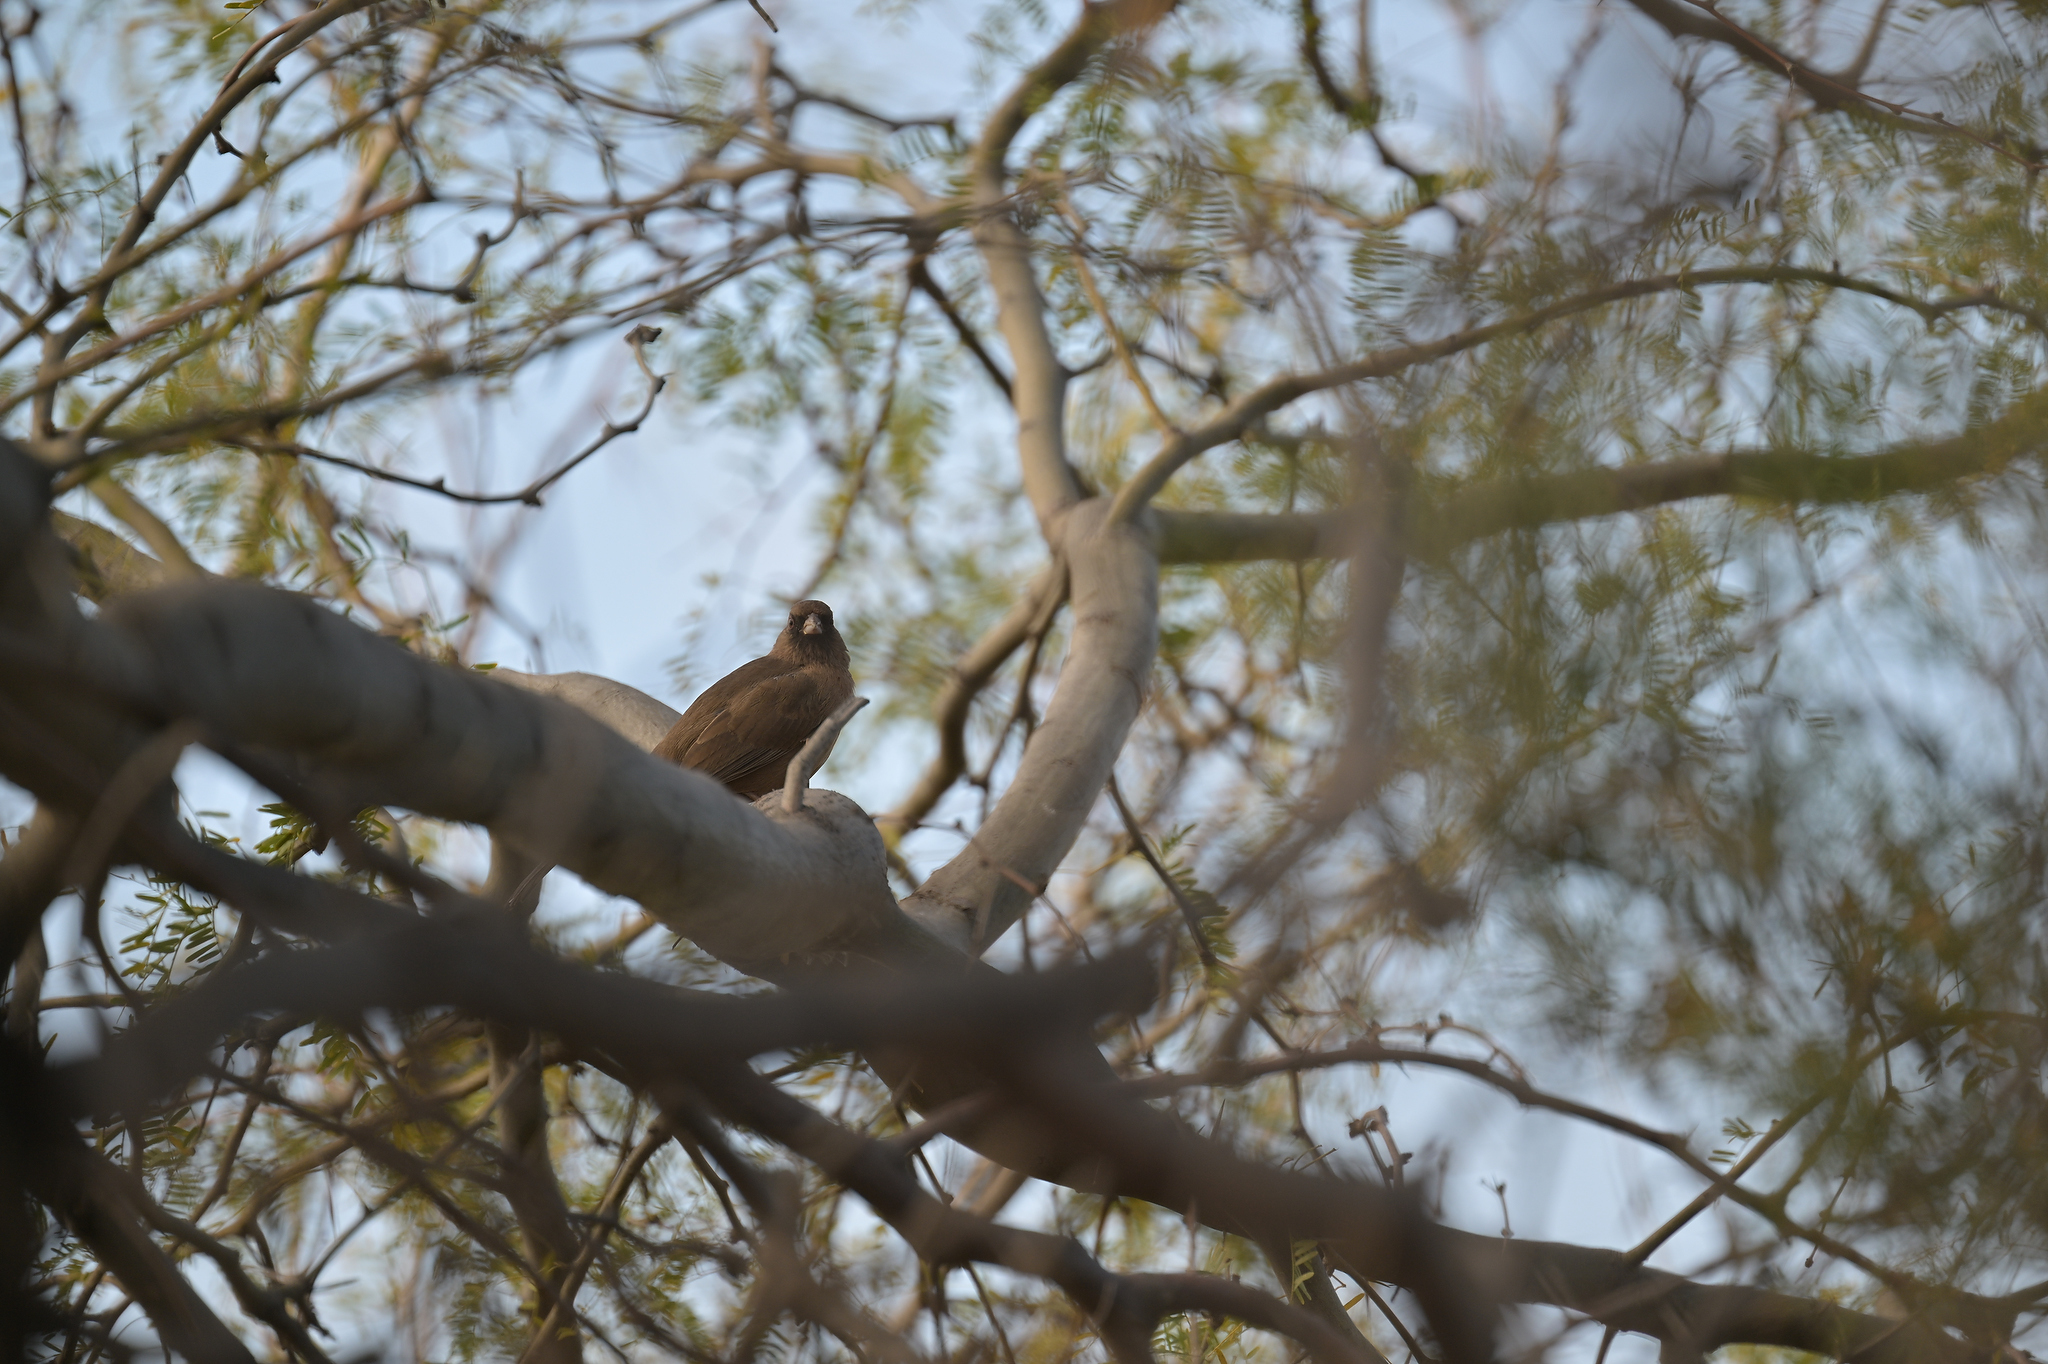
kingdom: Animalia
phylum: Chordata
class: Aves
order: Passeriformes
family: Passerellidae
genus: Melozone
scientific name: Melozone aberti
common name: Abert's towhee
